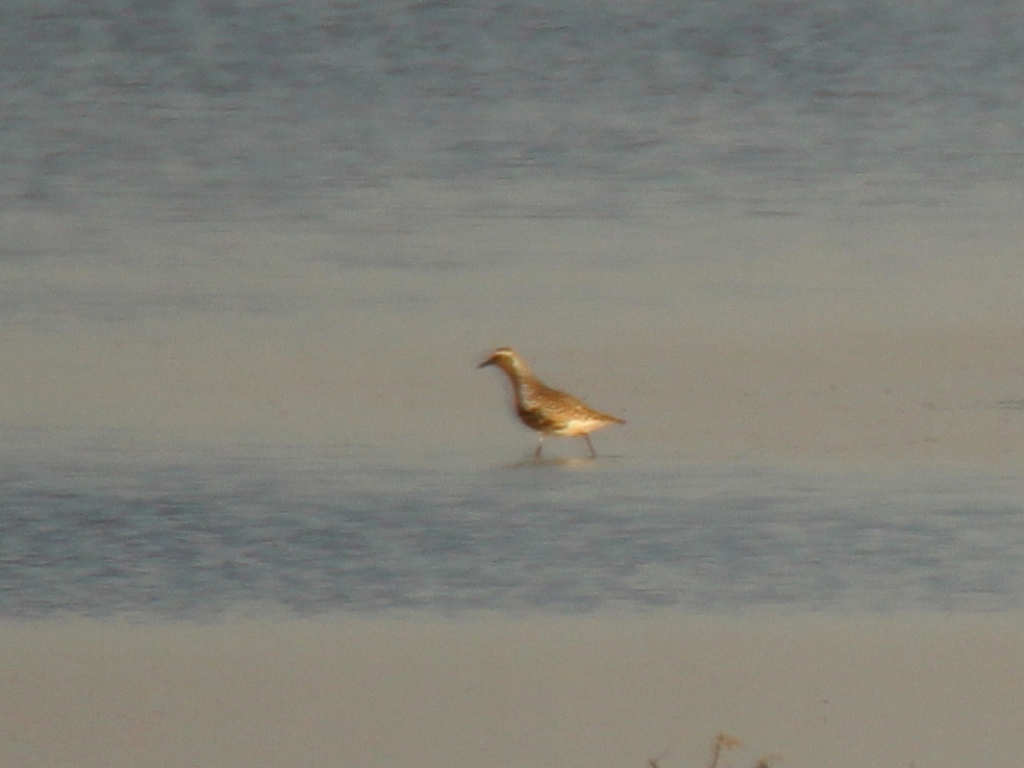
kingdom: Animalia
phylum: Chordata
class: Aves
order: Charadriiformes
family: Charadriidae
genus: Pluvialis
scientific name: Pluvialis squatarola
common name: Grey plover
